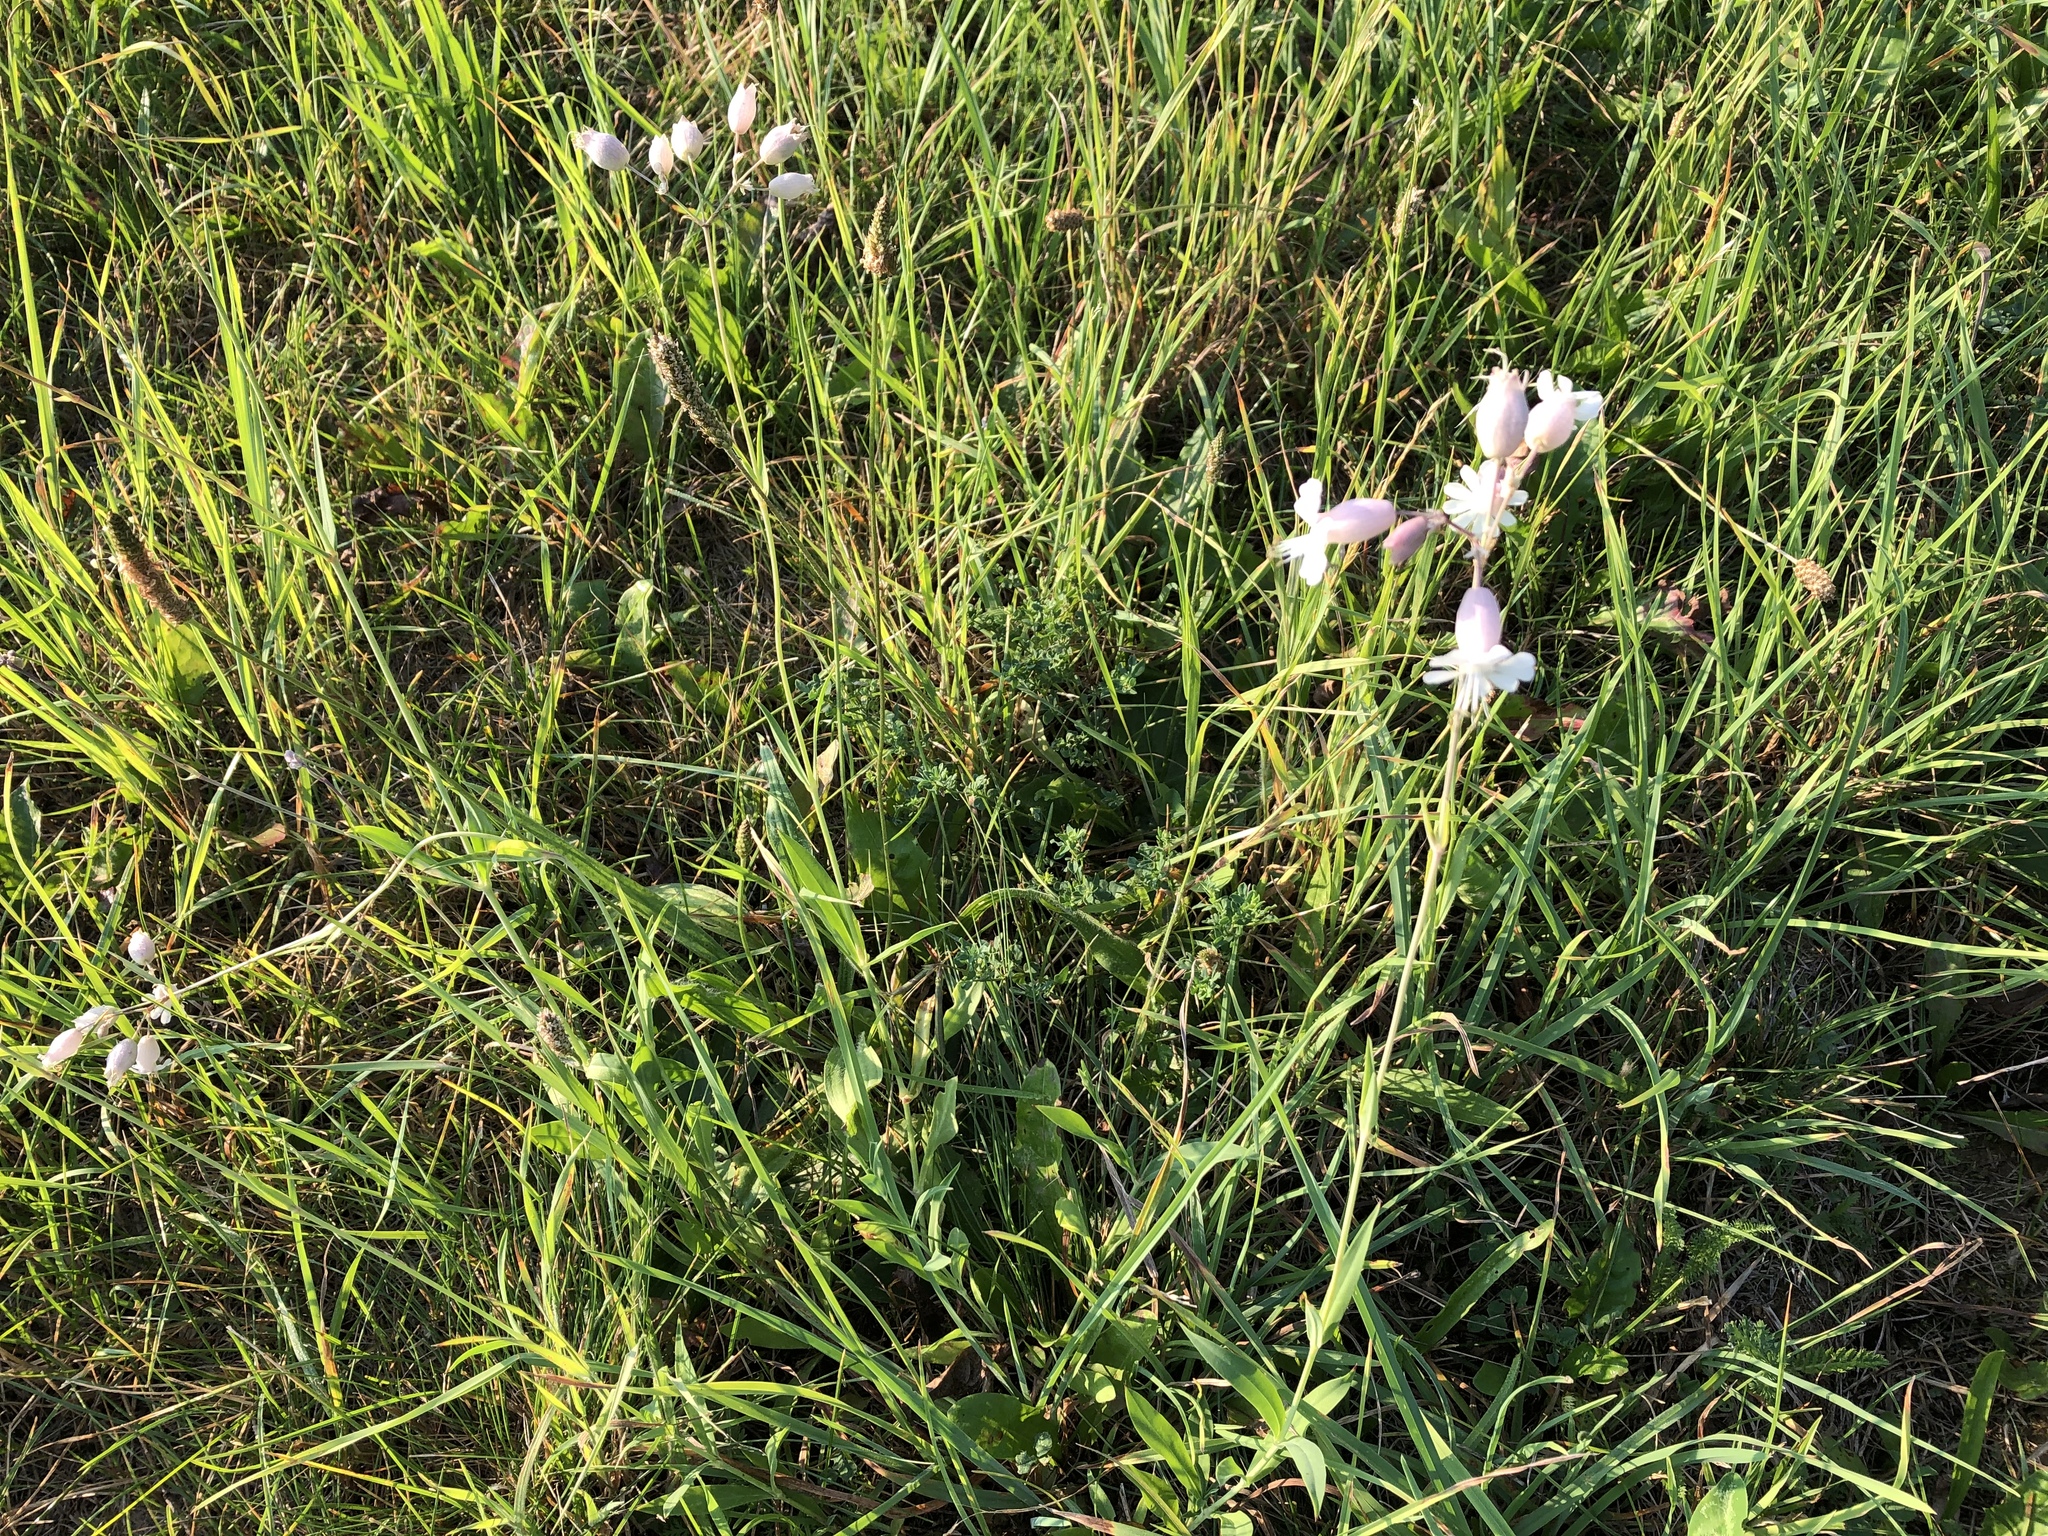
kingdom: Plantae
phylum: Tracheophyta
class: Magnoliopsida
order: Caryophyllales
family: Caryophyllaceae
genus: Silene
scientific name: Silene vulgaris
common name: Bladder campion
